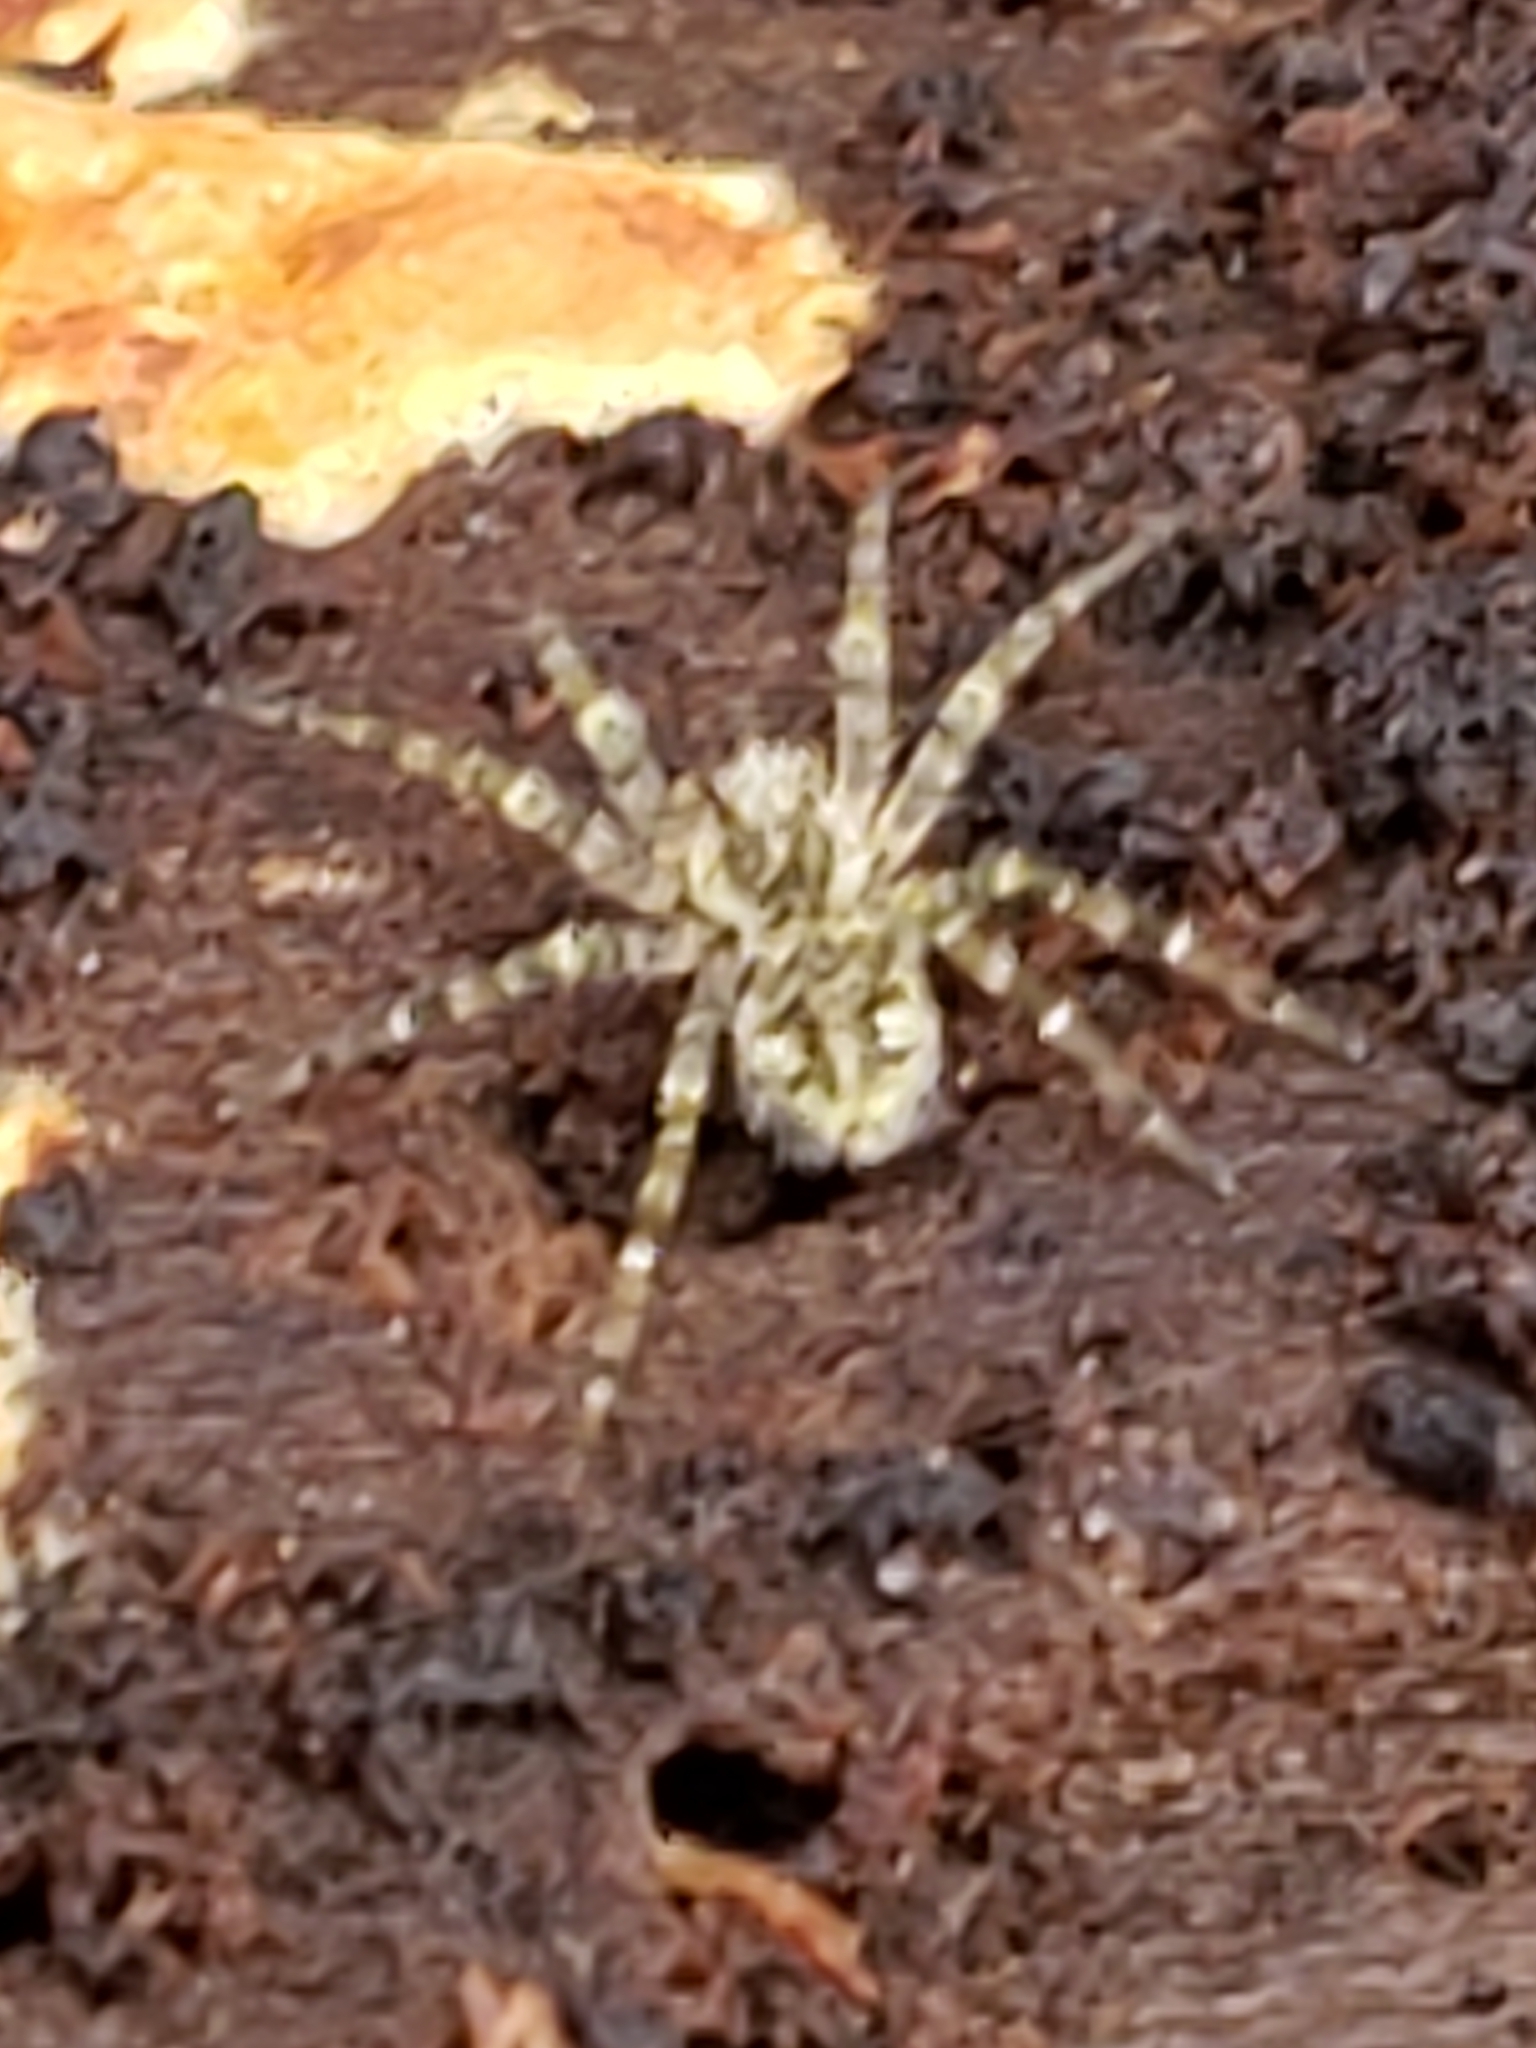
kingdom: Animalia
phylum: Arthropoda
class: Arachnida
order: Araneae
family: Pisauridae
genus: Dolomedes
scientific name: Dolomedes albineus
